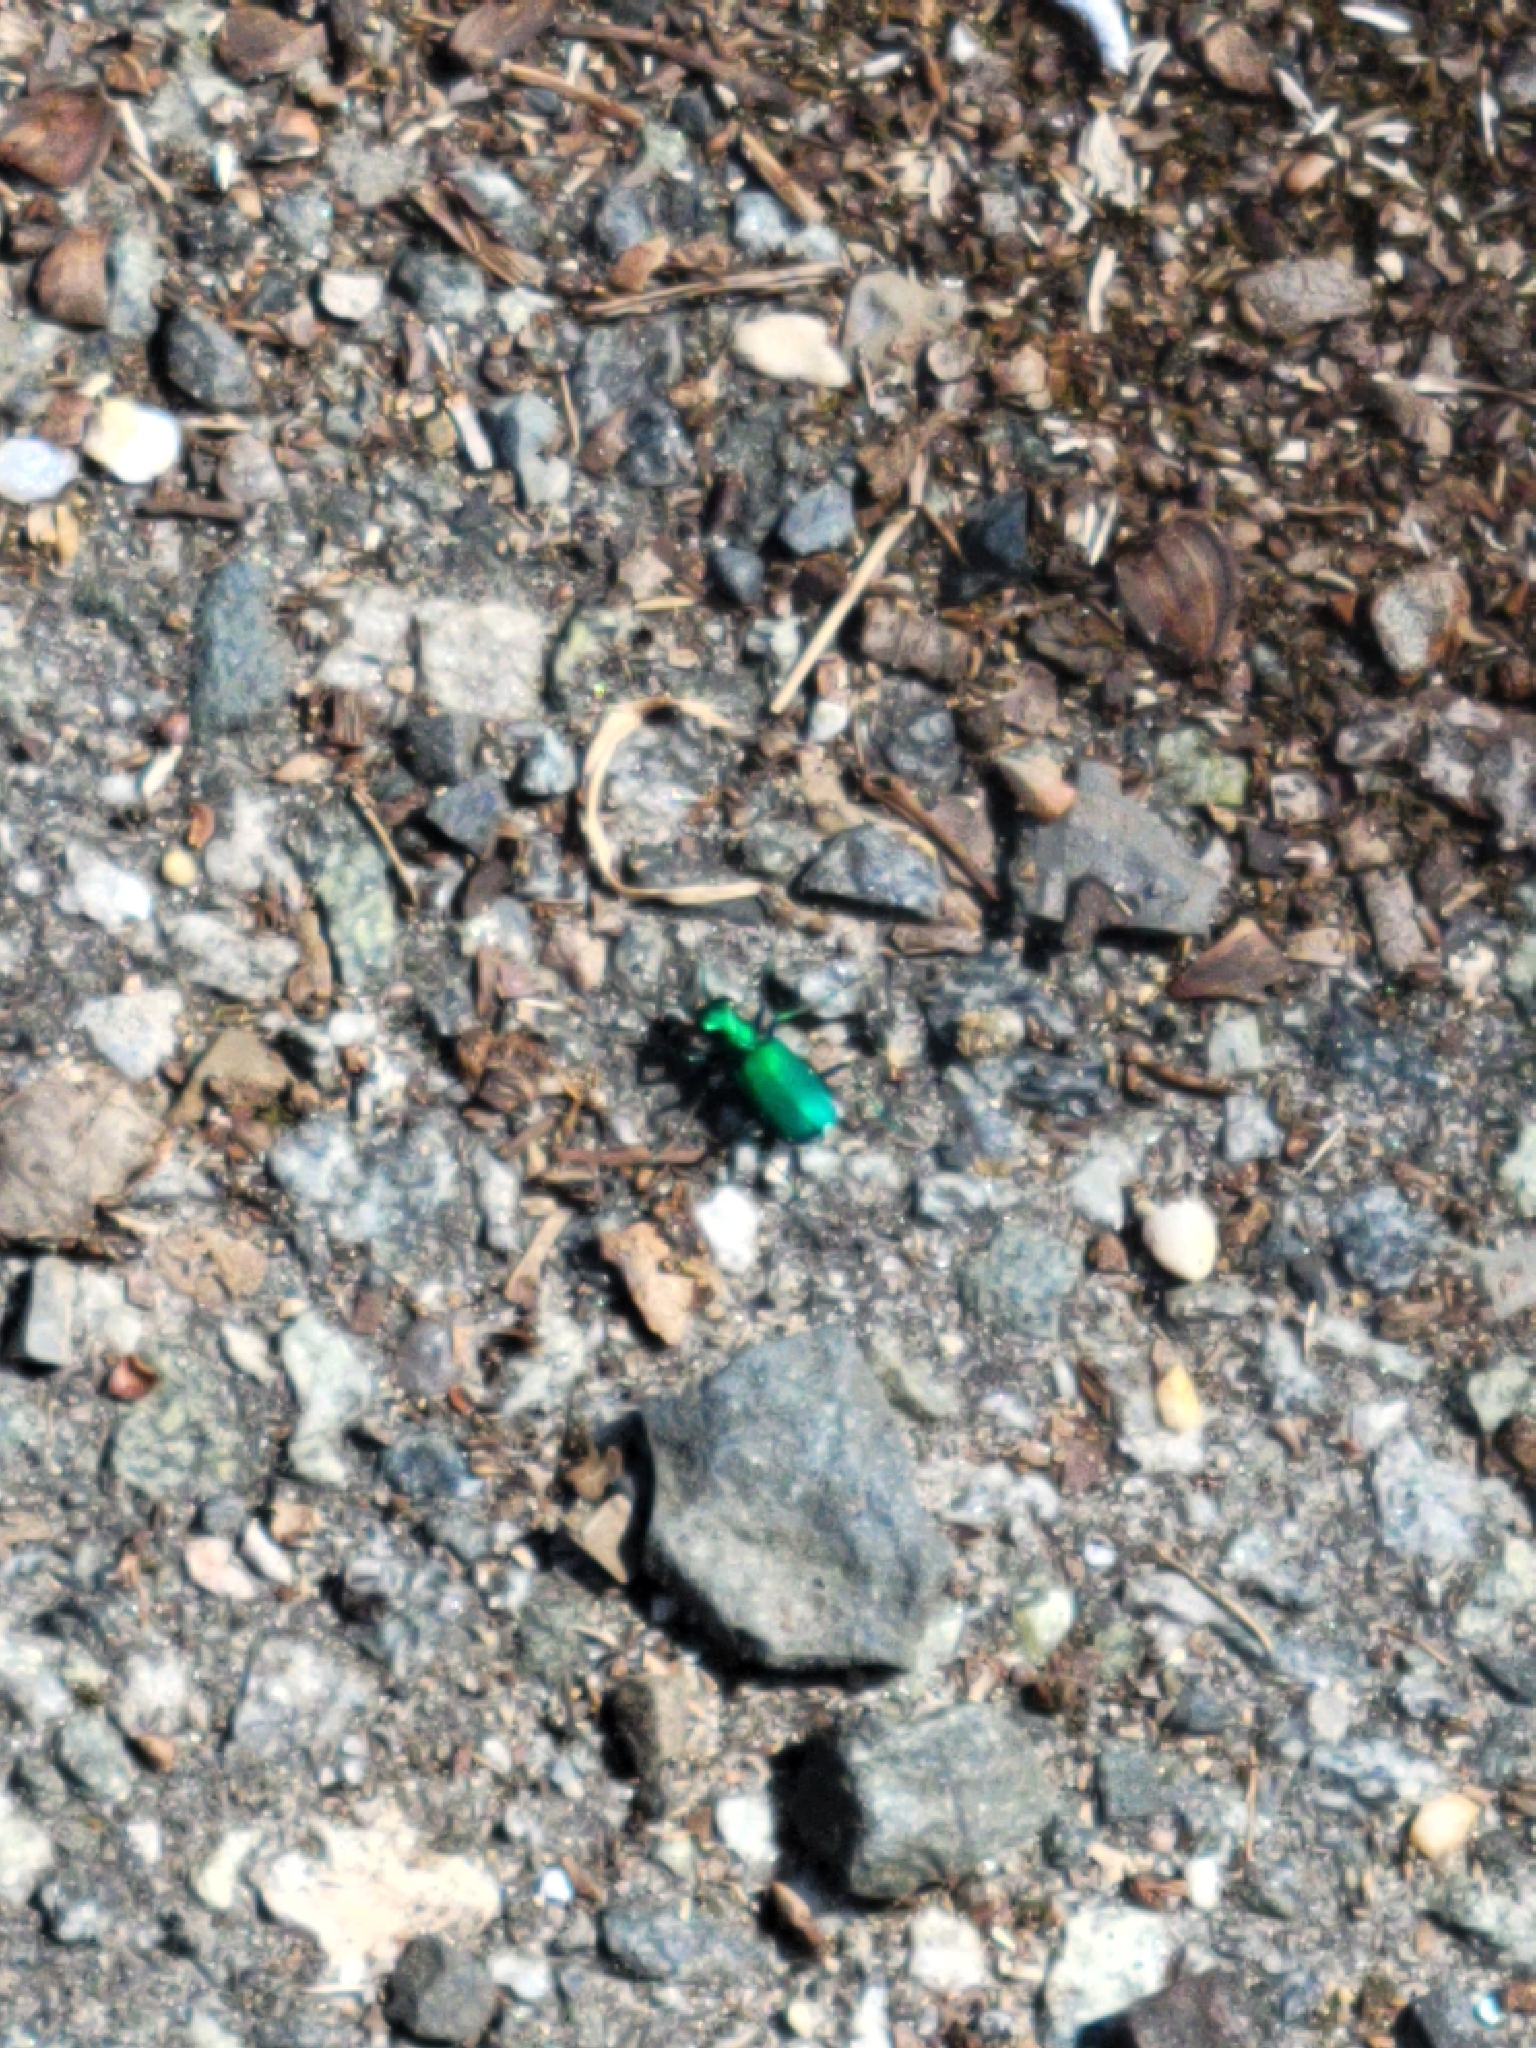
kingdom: Animalia
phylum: Arthropoda
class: Insecta
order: Coleoptera
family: Carabidae
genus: Cicindela
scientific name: Cicindela sexguttata
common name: Six-spotted tiger beetle
